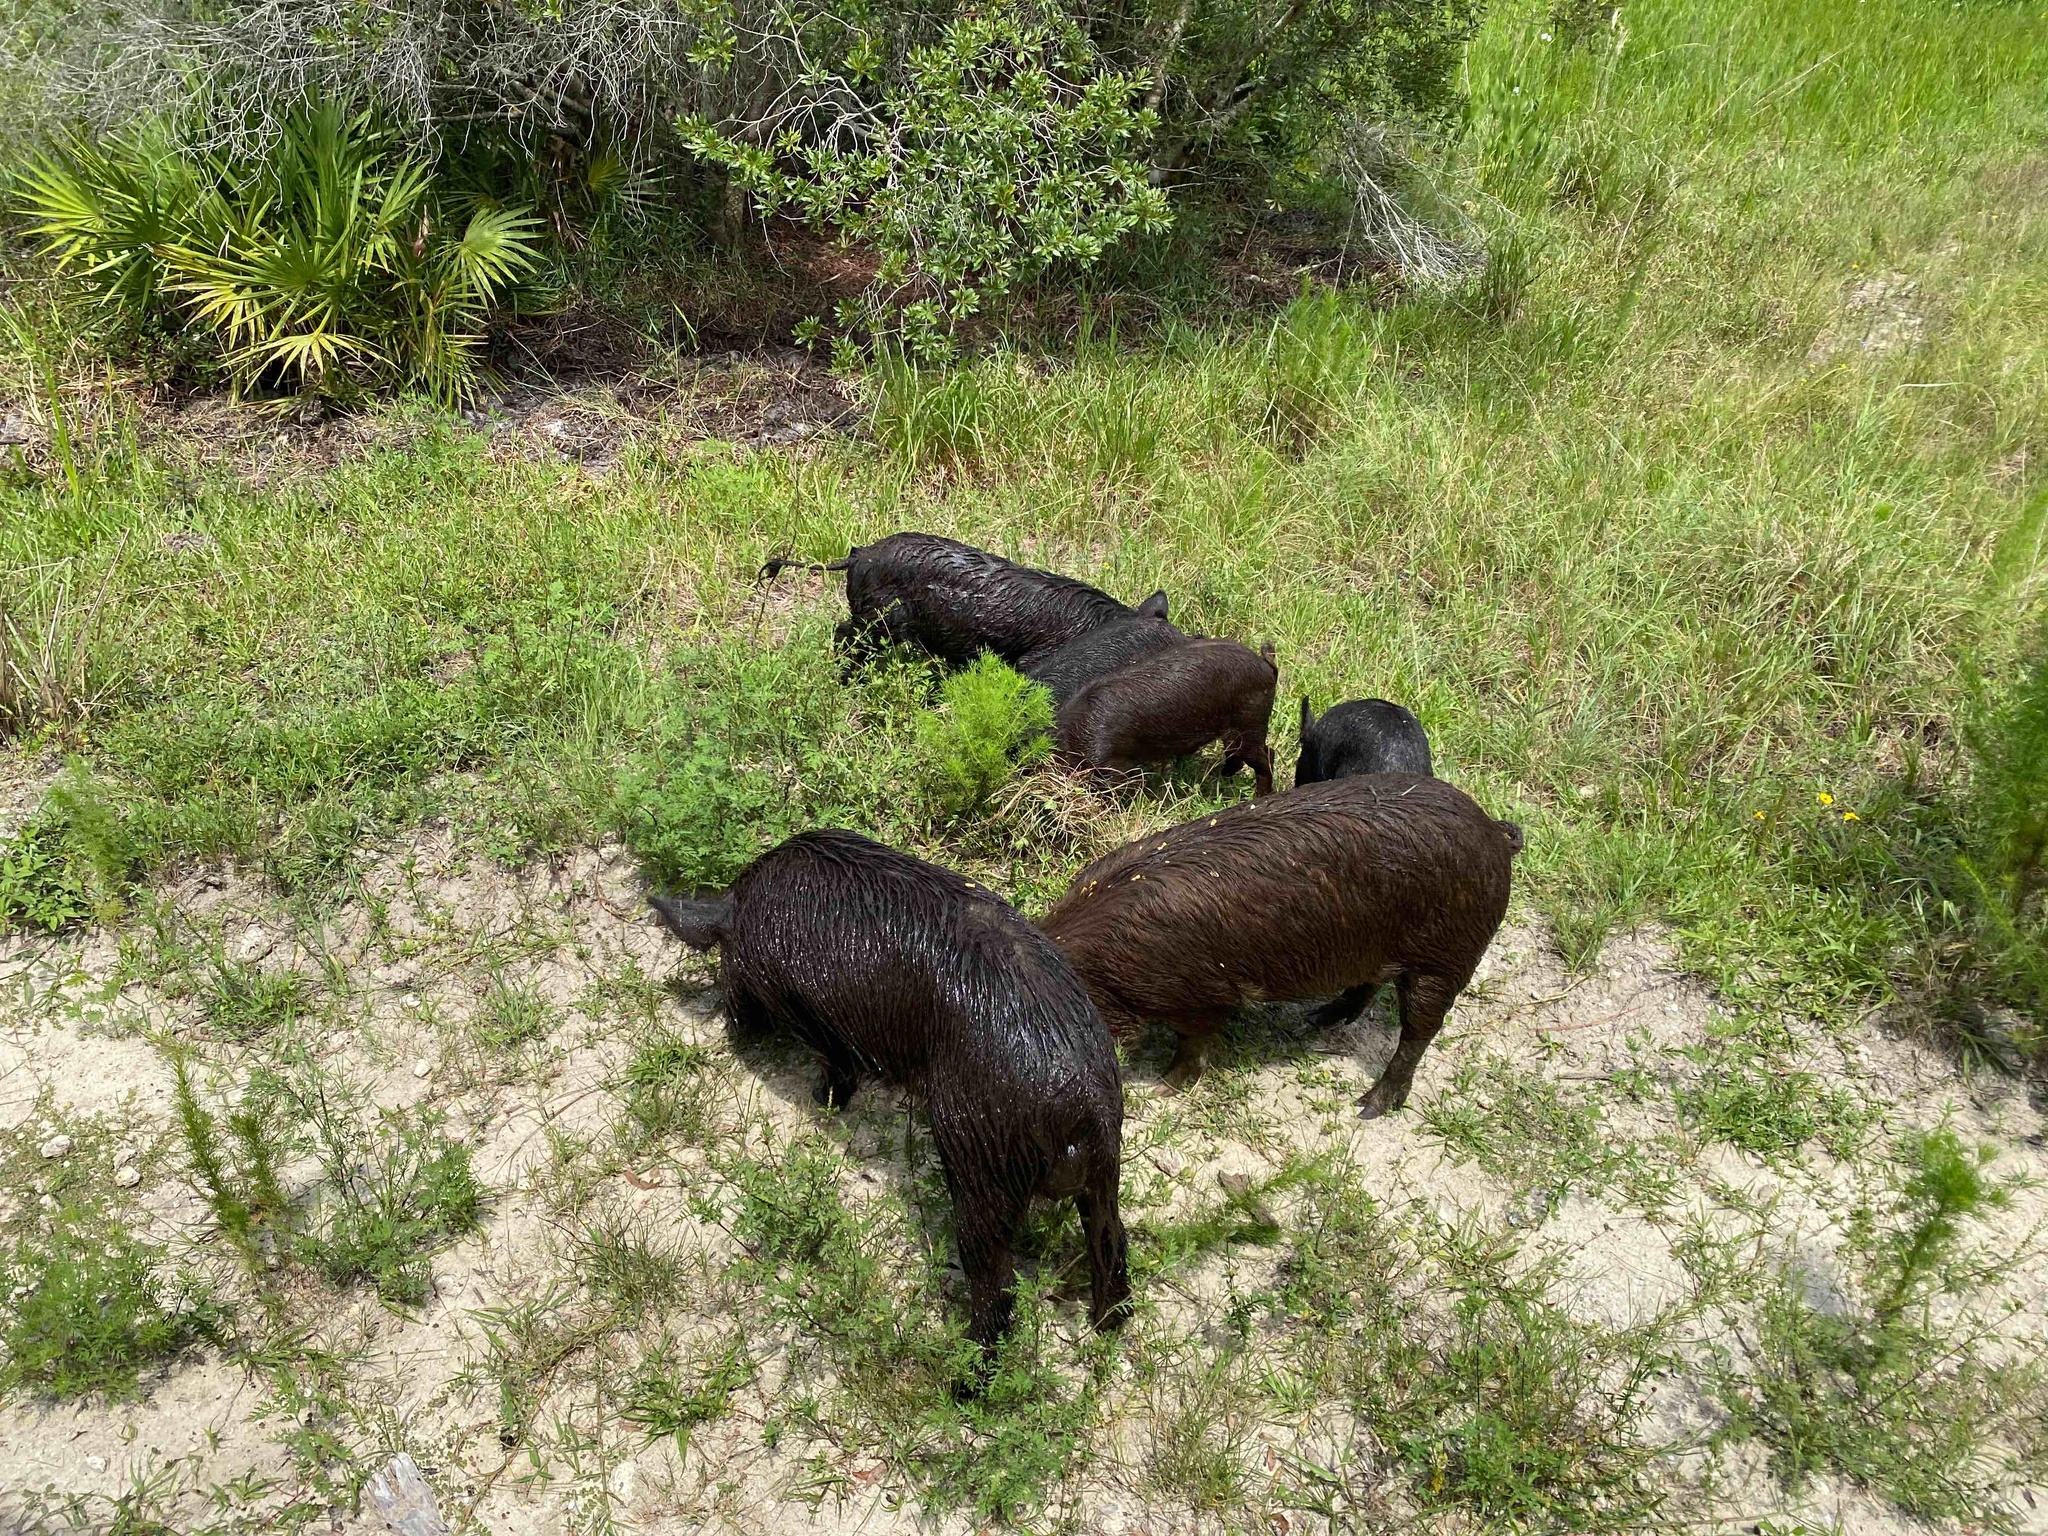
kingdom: Animalia
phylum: Chordata
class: Mammalia
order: Artiodactyla
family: Suidae
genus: Sus
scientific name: Sus scrofa
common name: Wild boar
